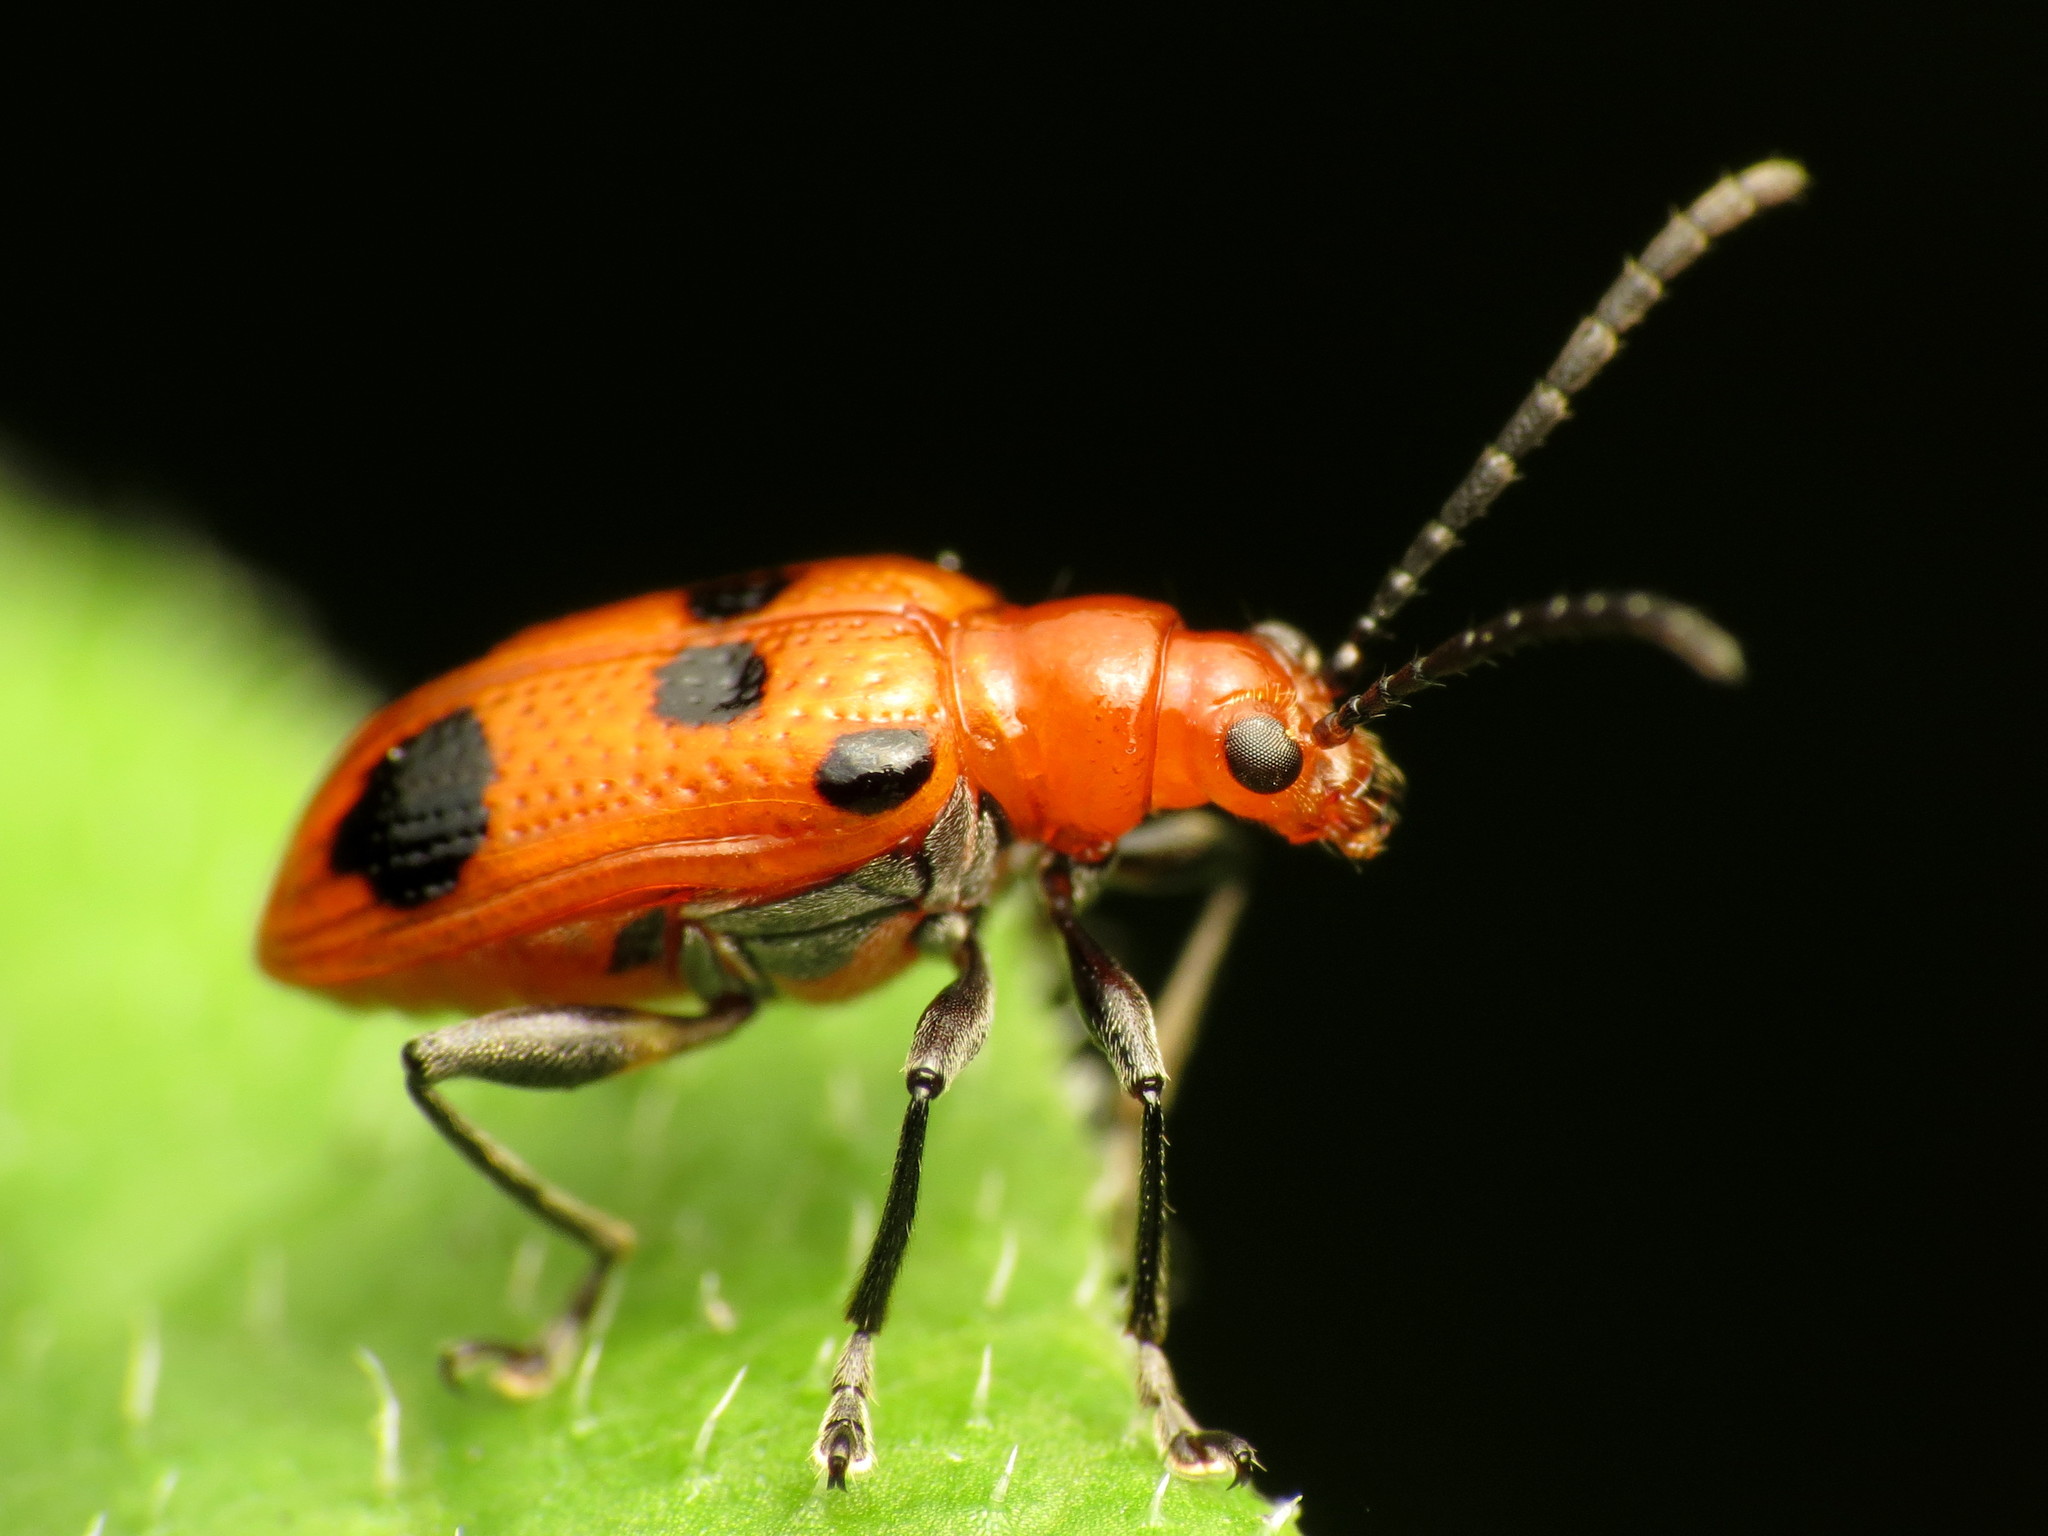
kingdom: Animalia
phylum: Arthropoda
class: Insecta
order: Coleoptera
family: Chrysomelidae
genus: Neolema
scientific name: Neolema sexpunctata
